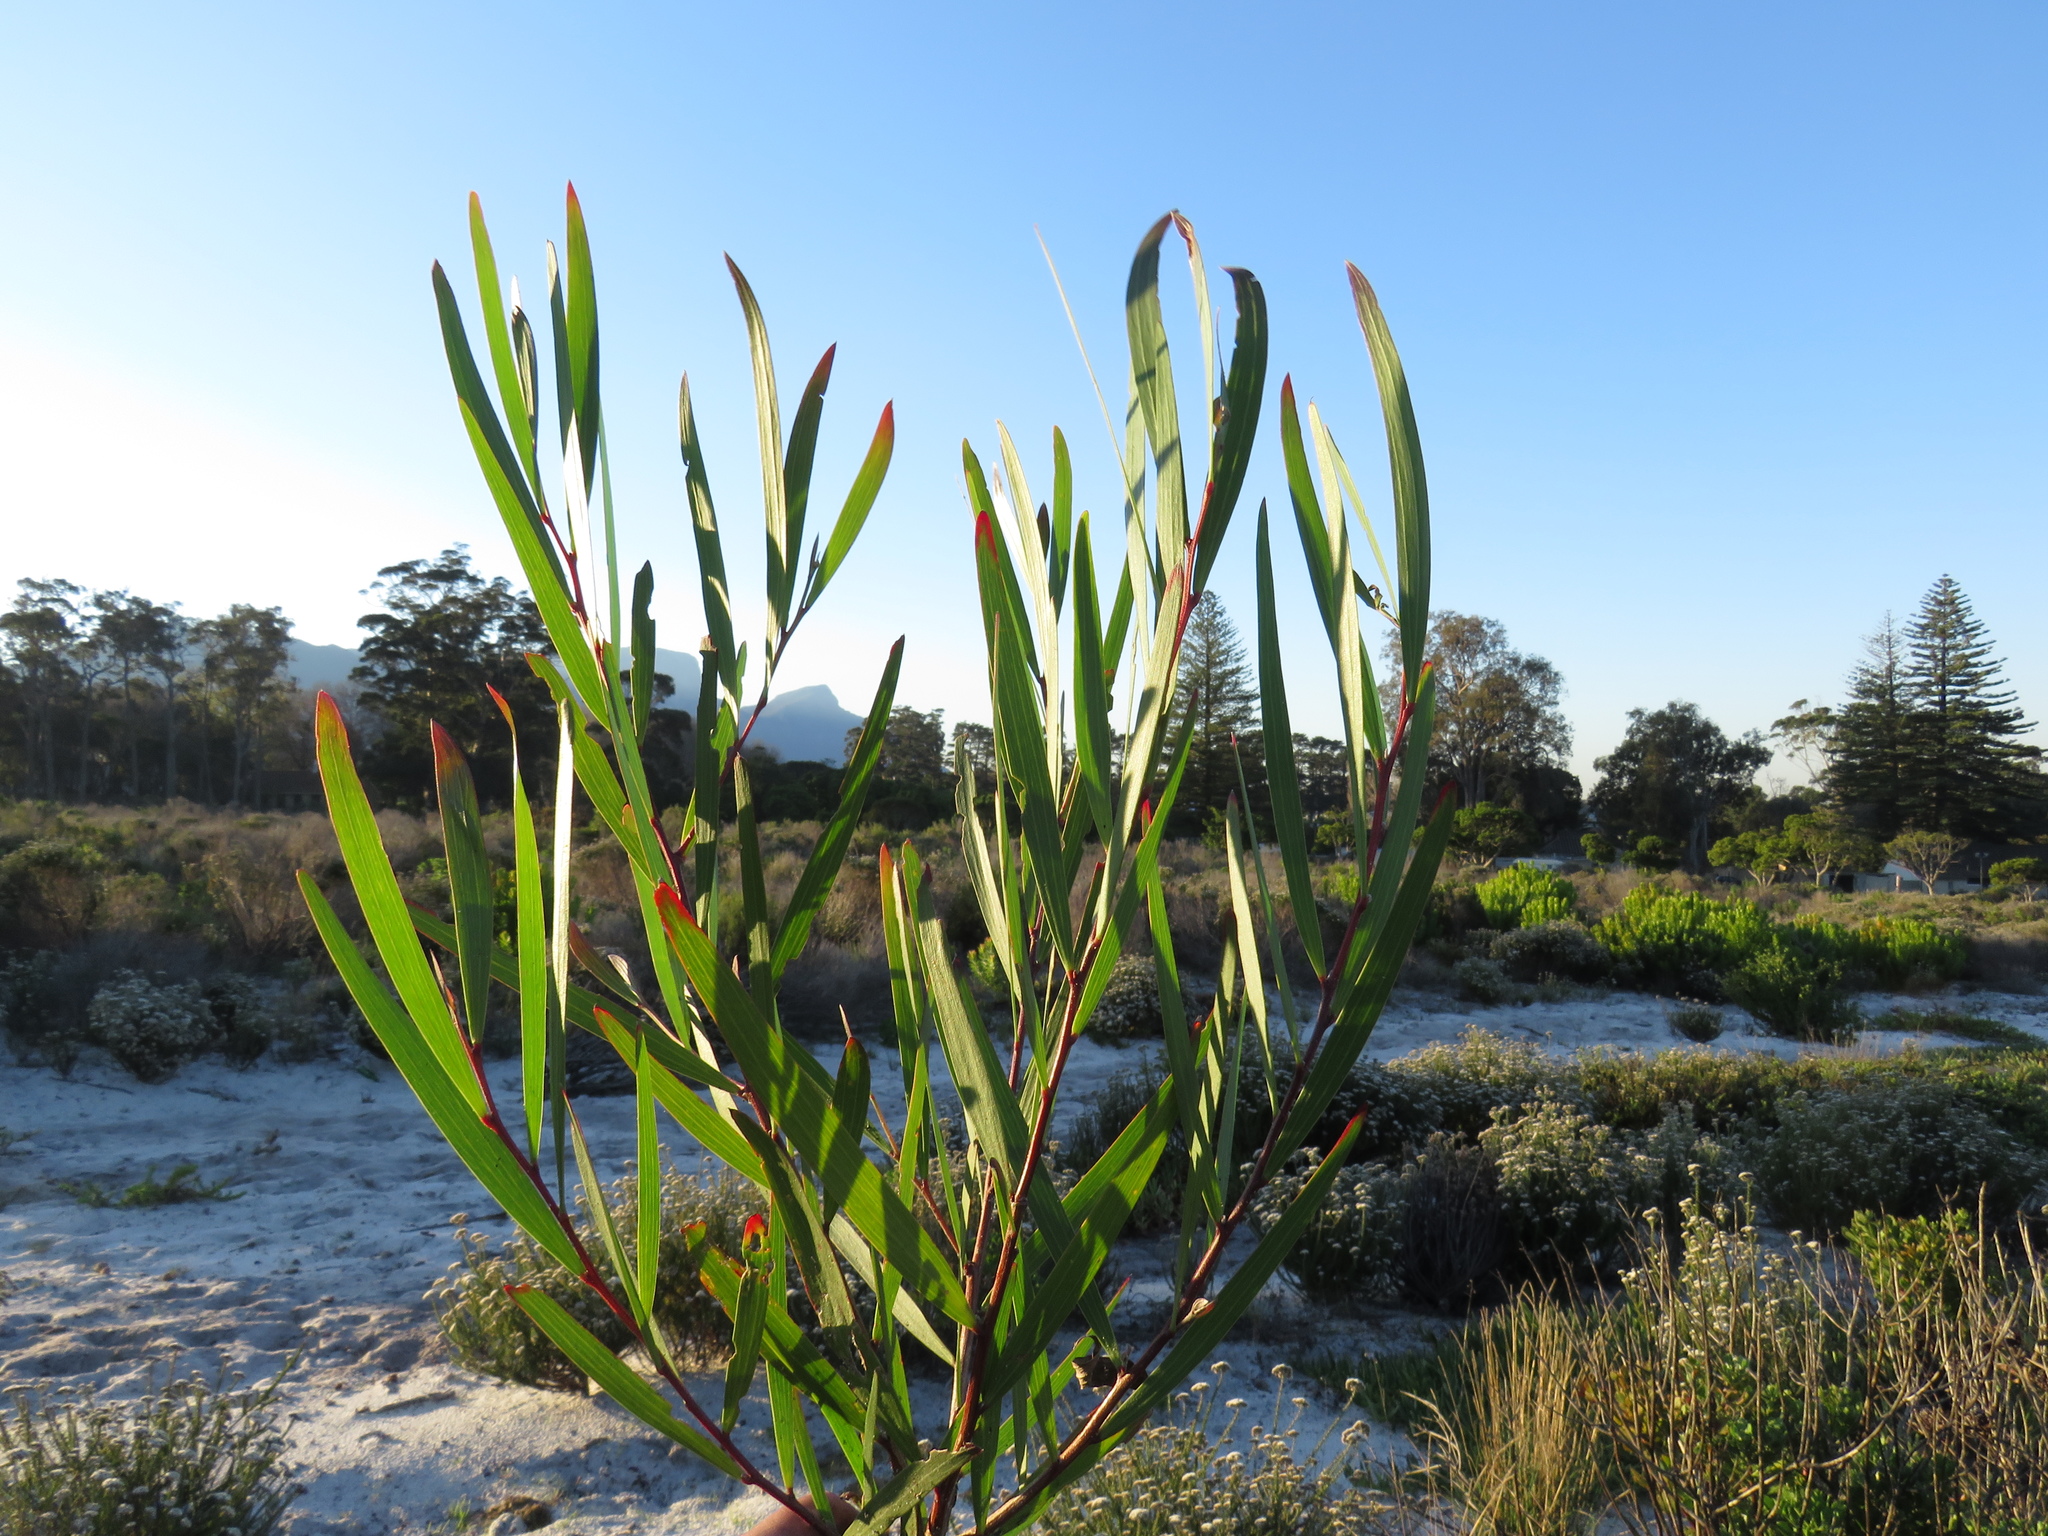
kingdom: Plantae
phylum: Tracheophyta
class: Magnoliopsida
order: Fabales
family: Fabaceae
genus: Acacia
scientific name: Acacia longifolia
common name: Sydney golden wattle
